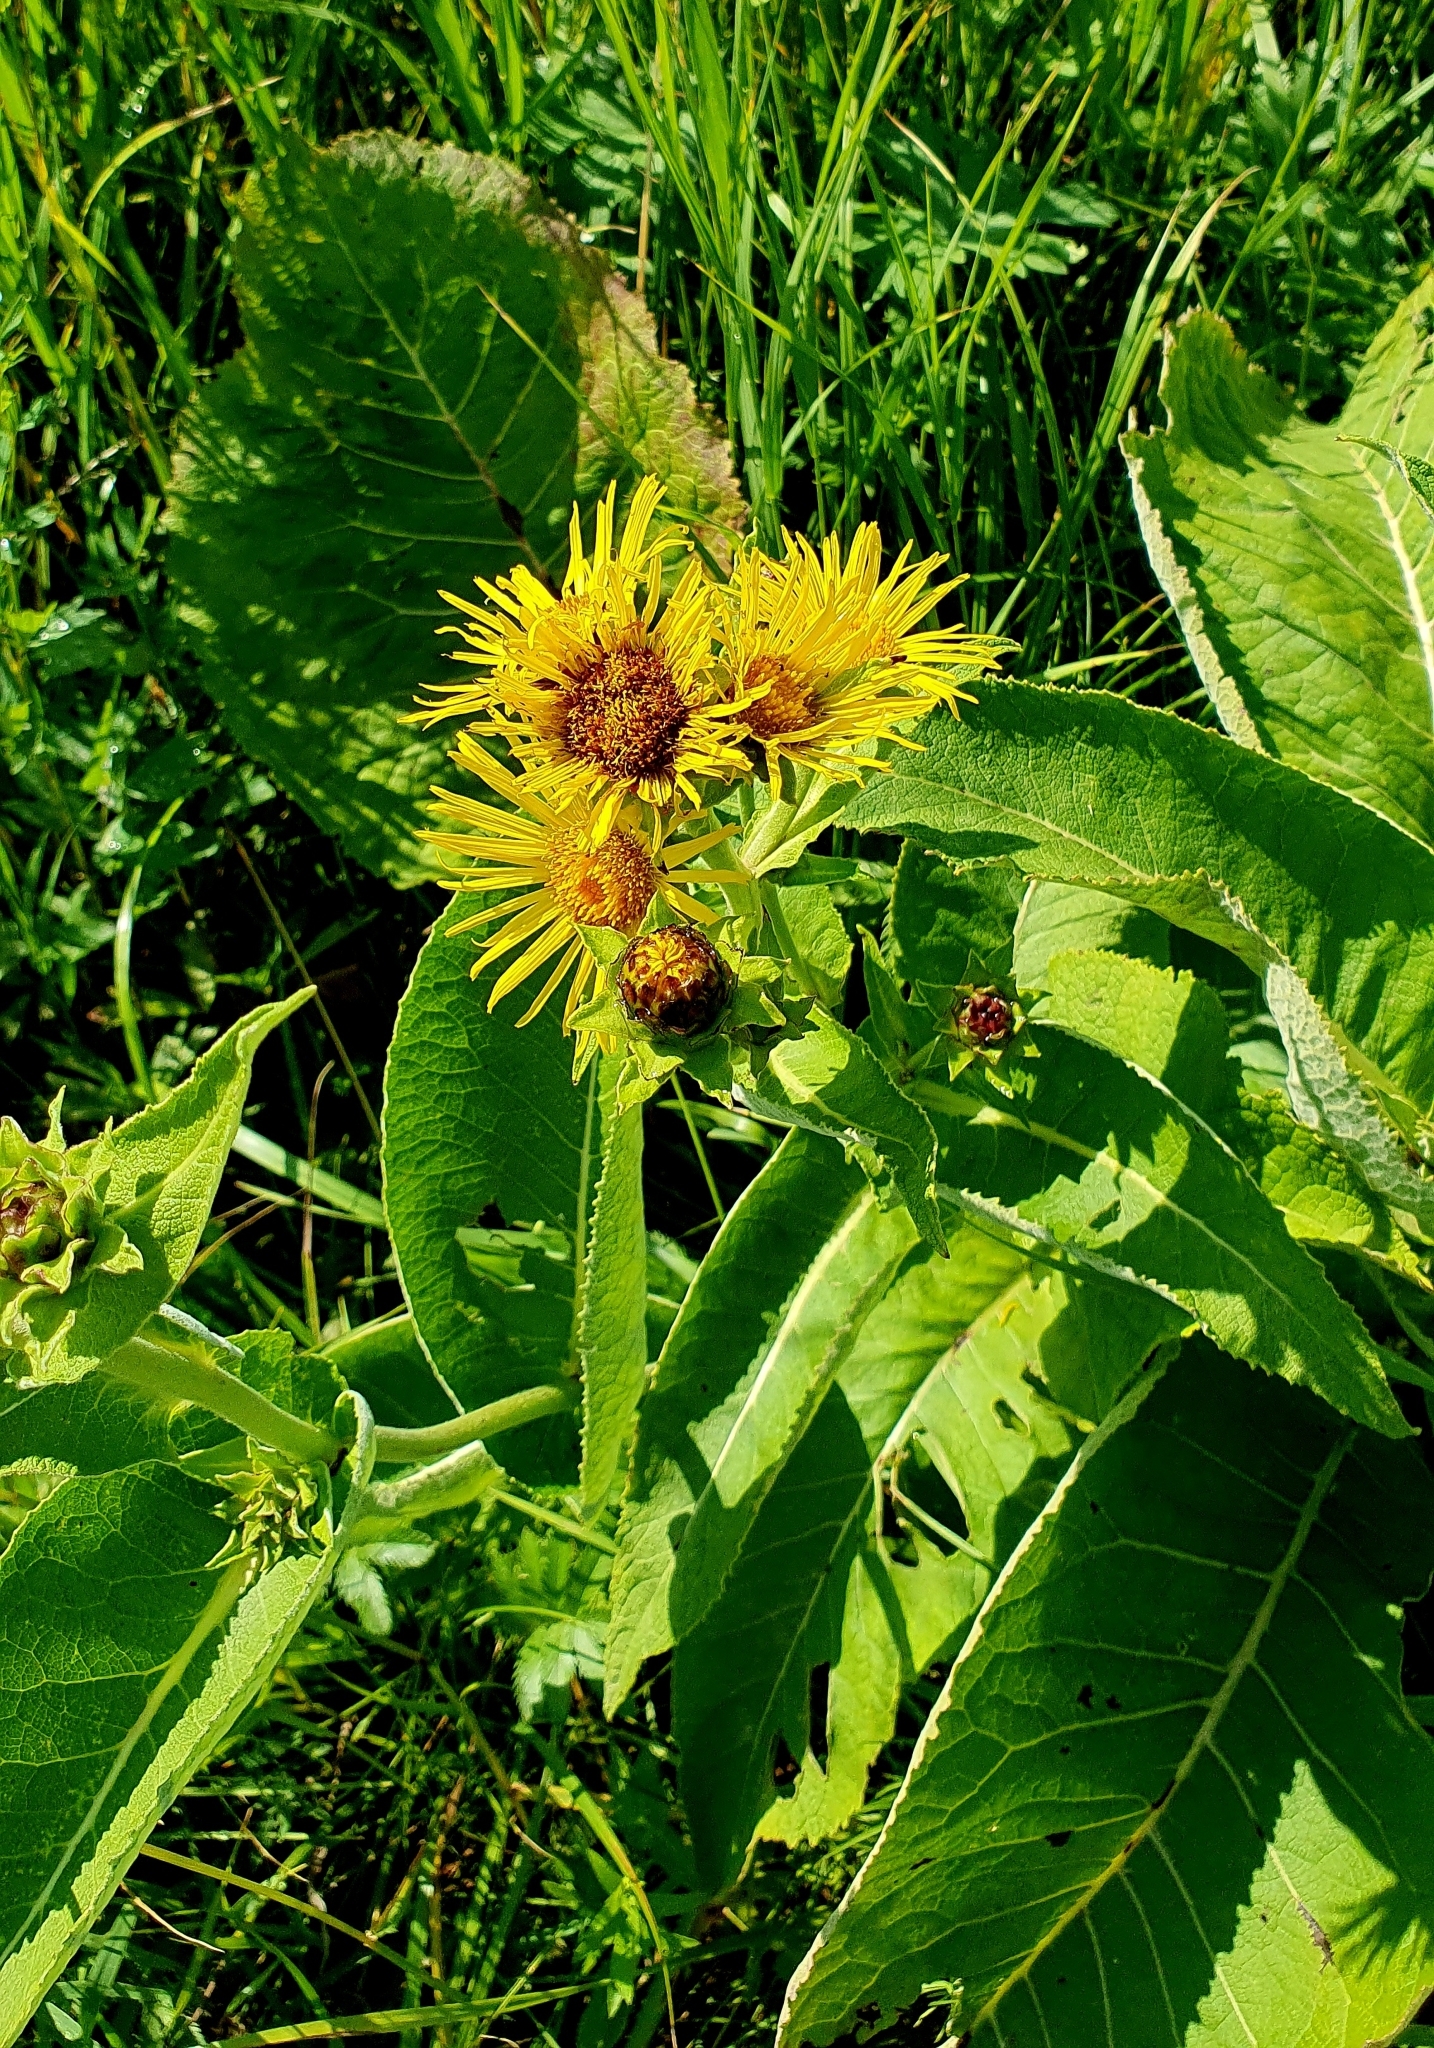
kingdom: Plantae
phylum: Tracheophyta
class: Magnoliopsida
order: Asterales
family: Asteraceae
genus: Inula
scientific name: Inula helenium
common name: Elecampane
